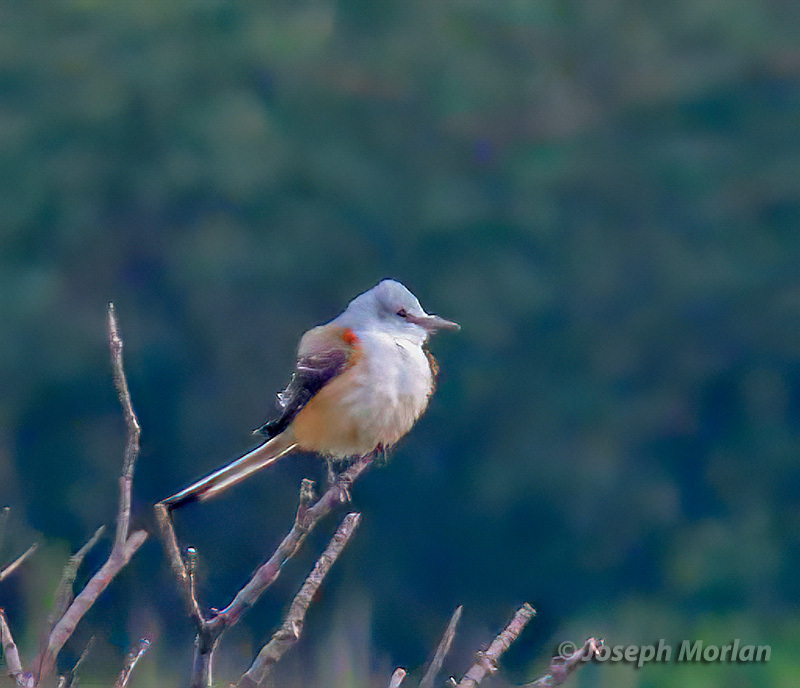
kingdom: Animalia
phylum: Chordata
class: Aves
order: Passeriformes
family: Tyrannidae
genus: Tyrannus
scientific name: Tyrannus forficatus
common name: Scissor-tailed flycatcher
